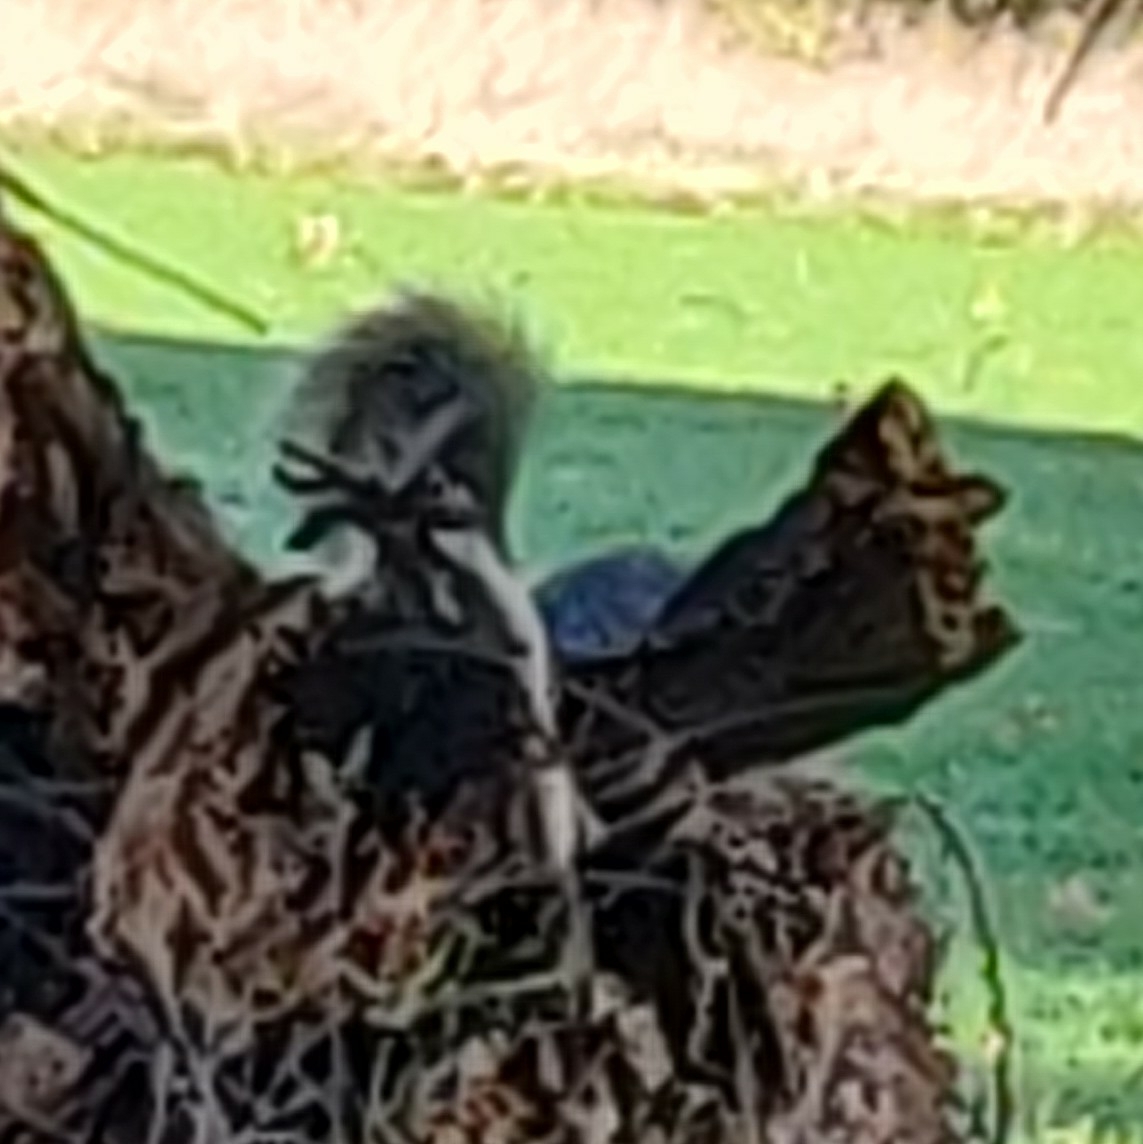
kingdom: Animalia
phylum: Chordata
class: Mammalia
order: Rodentia
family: Sciuridae
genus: Sciurus
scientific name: Sciurus carolinensis
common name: Eastern gray squirrel
